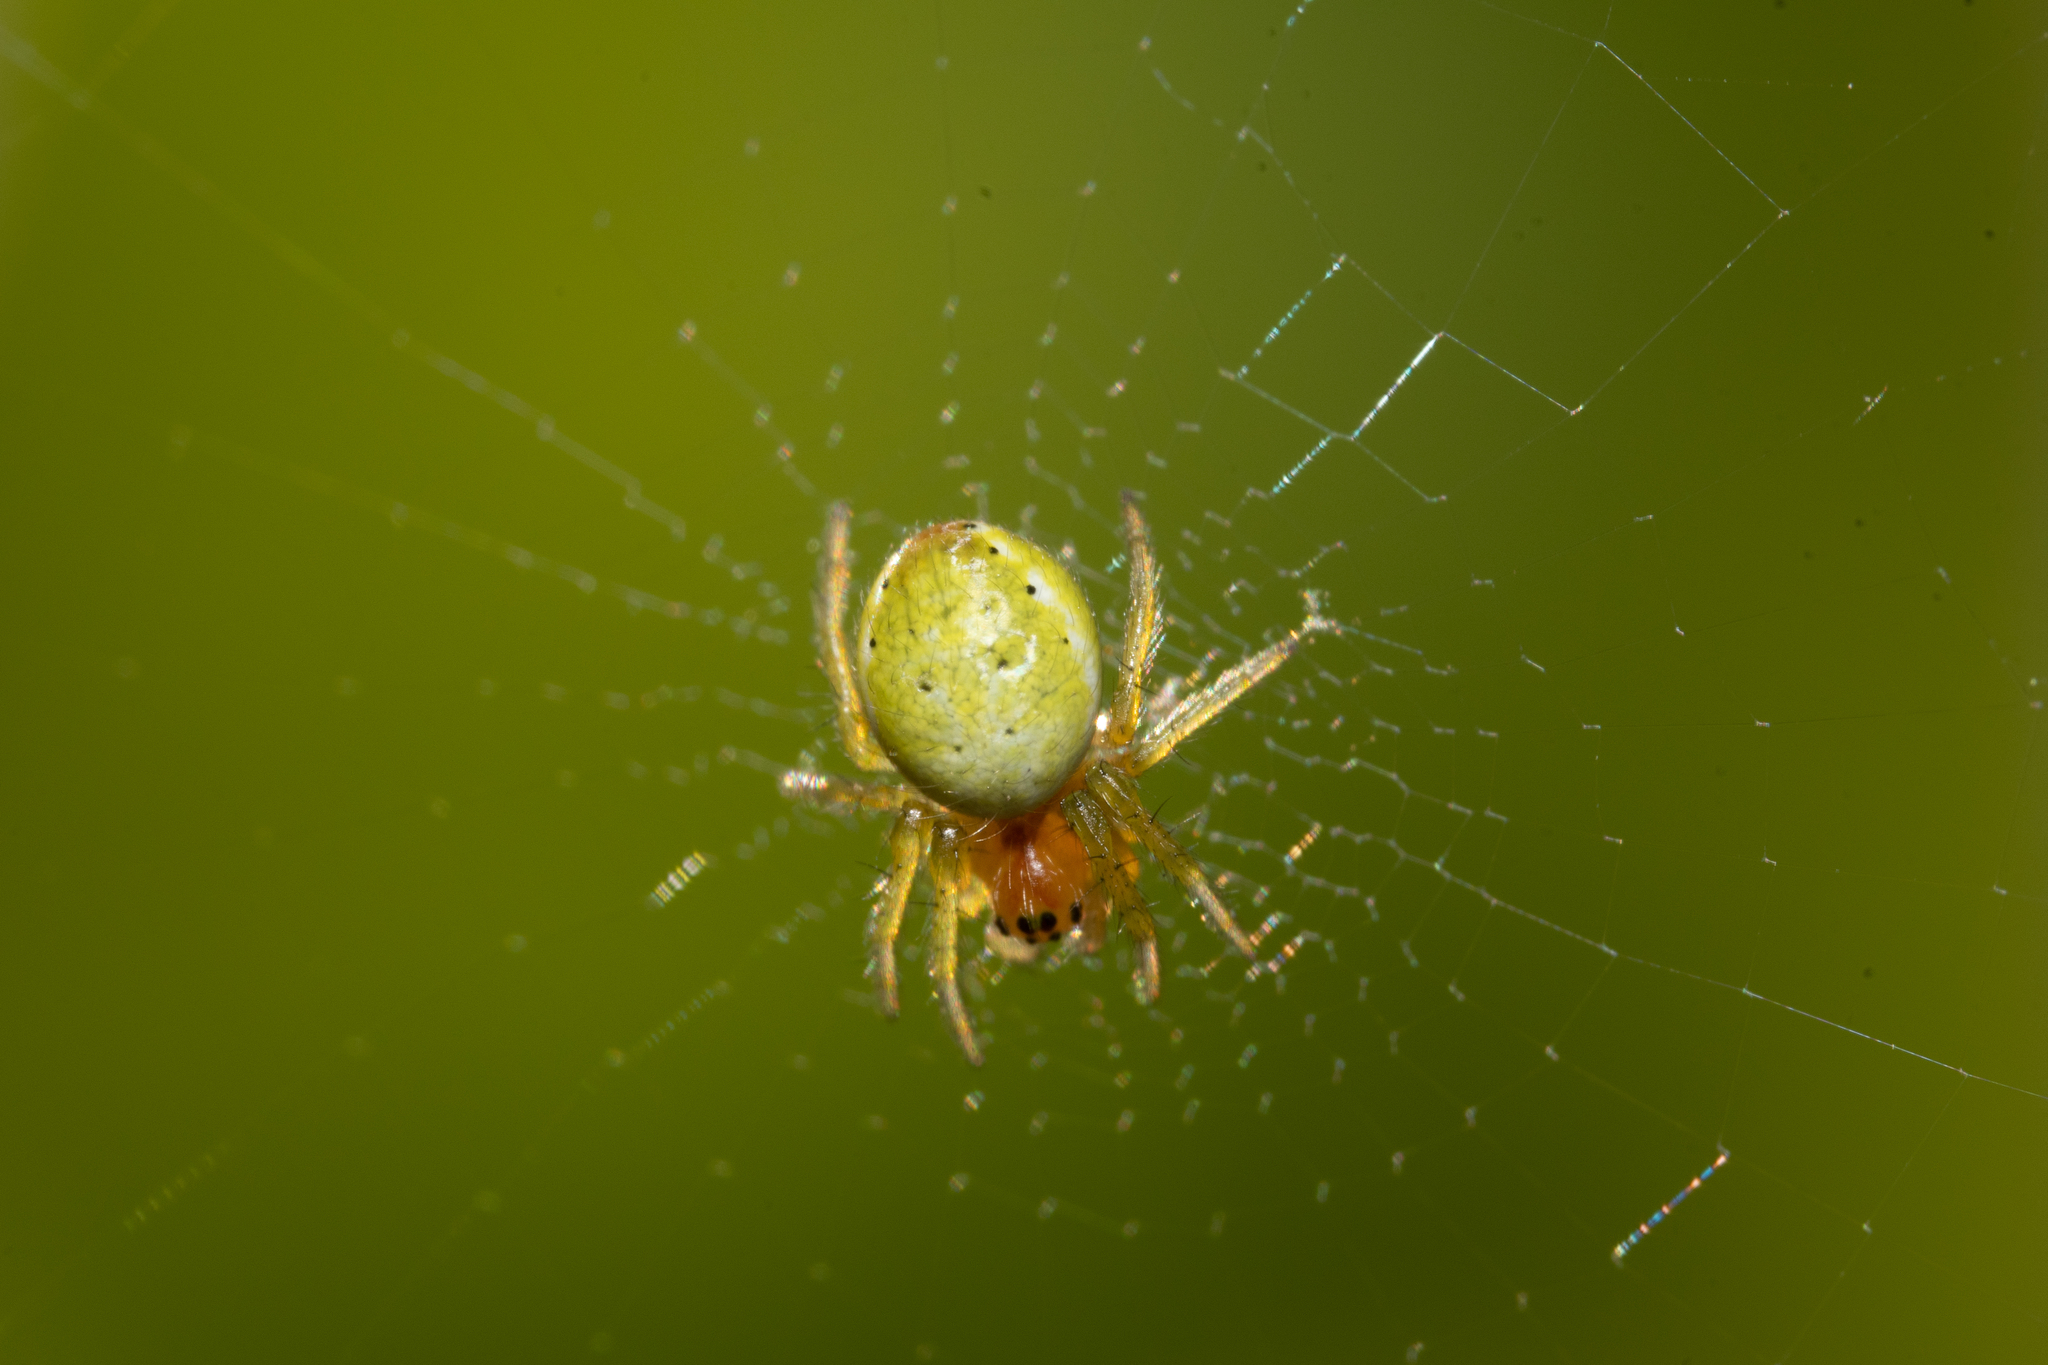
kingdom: Animalia
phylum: Arthropoda
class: Arachnida
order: Araneae
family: Araneidae
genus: Araniella
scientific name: Araniella
